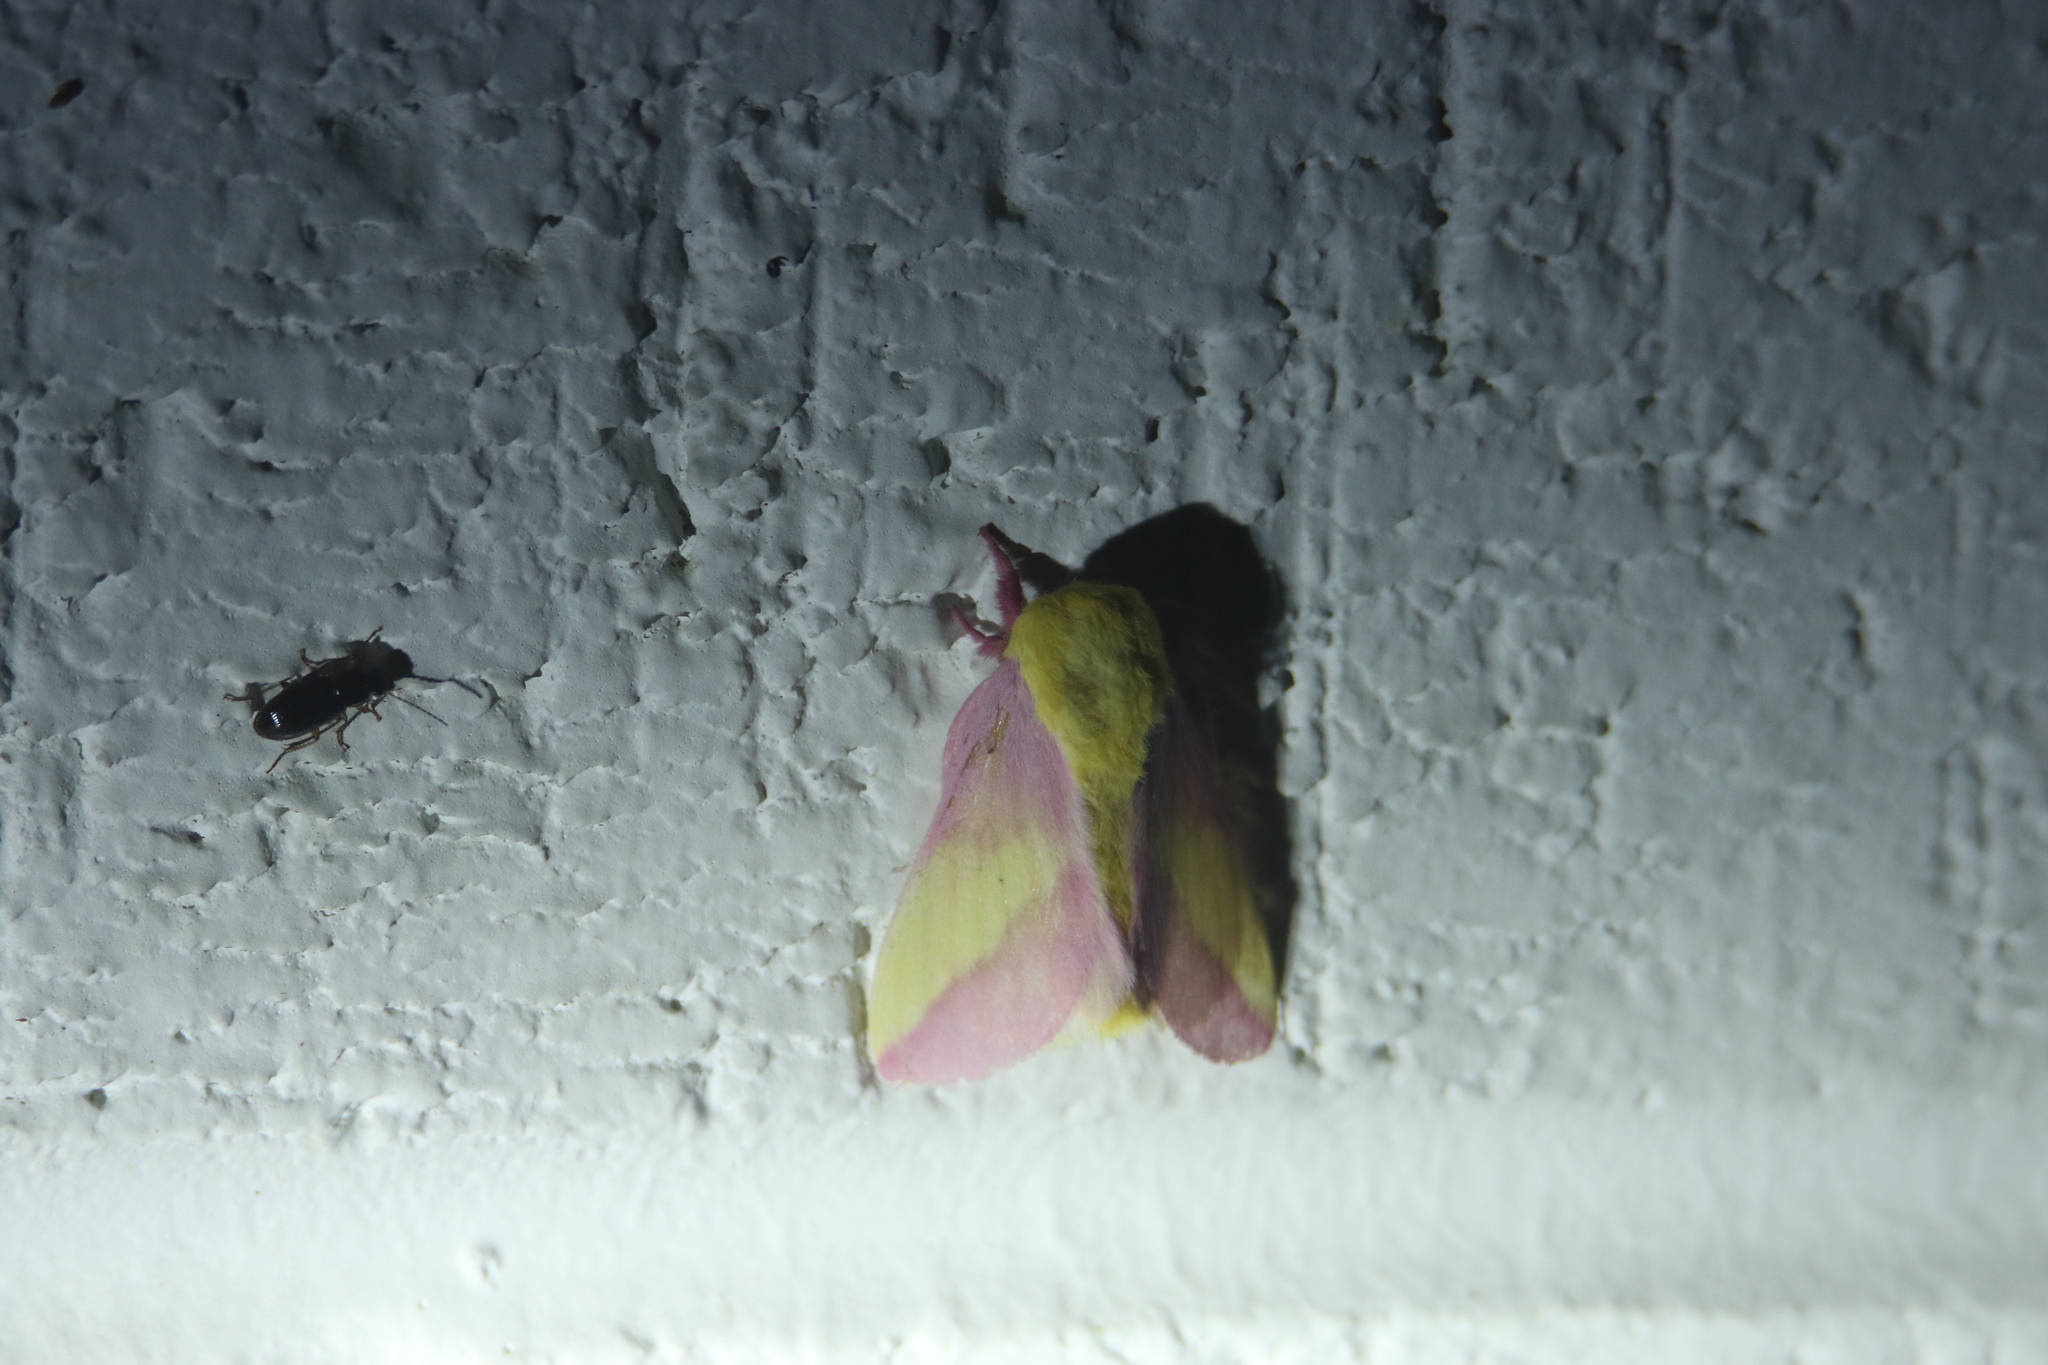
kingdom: Animalia
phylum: Arthropoda
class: Insecta
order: Lepidoptera
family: Saturniidae
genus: Dryocampa
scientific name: Dryocampa rubicunda
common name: Rosy maple moth
